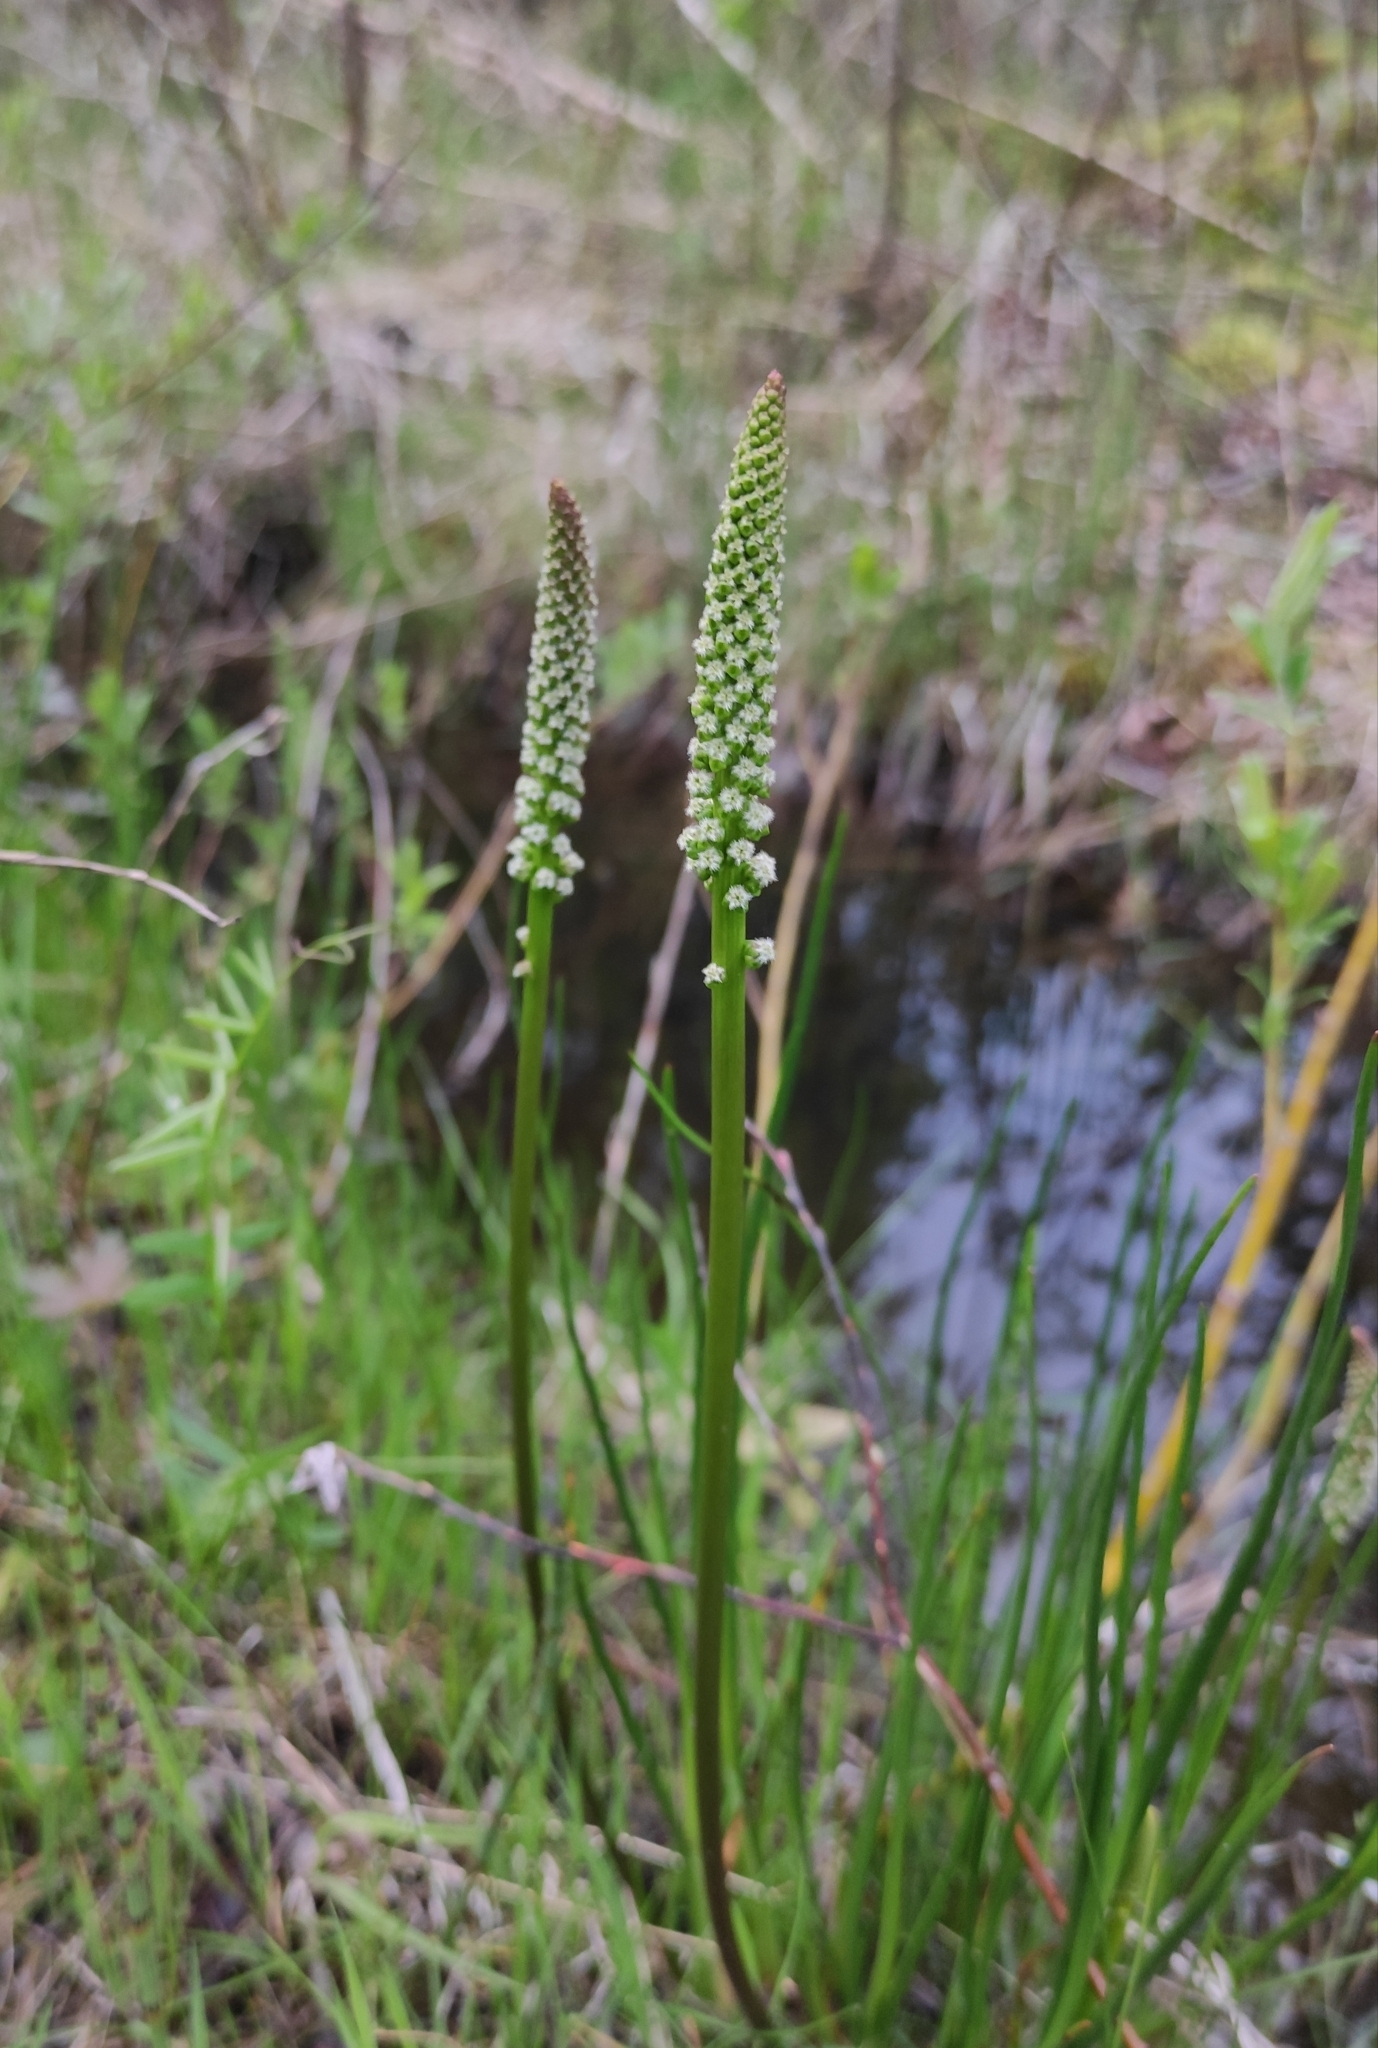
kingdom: Plantae
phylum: Tracheophyta
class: Liliopsida
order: Alismatales
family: Juncaginaceae
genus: Triglochin
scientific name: Triglochin maritima
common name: Sea arrowgrass
